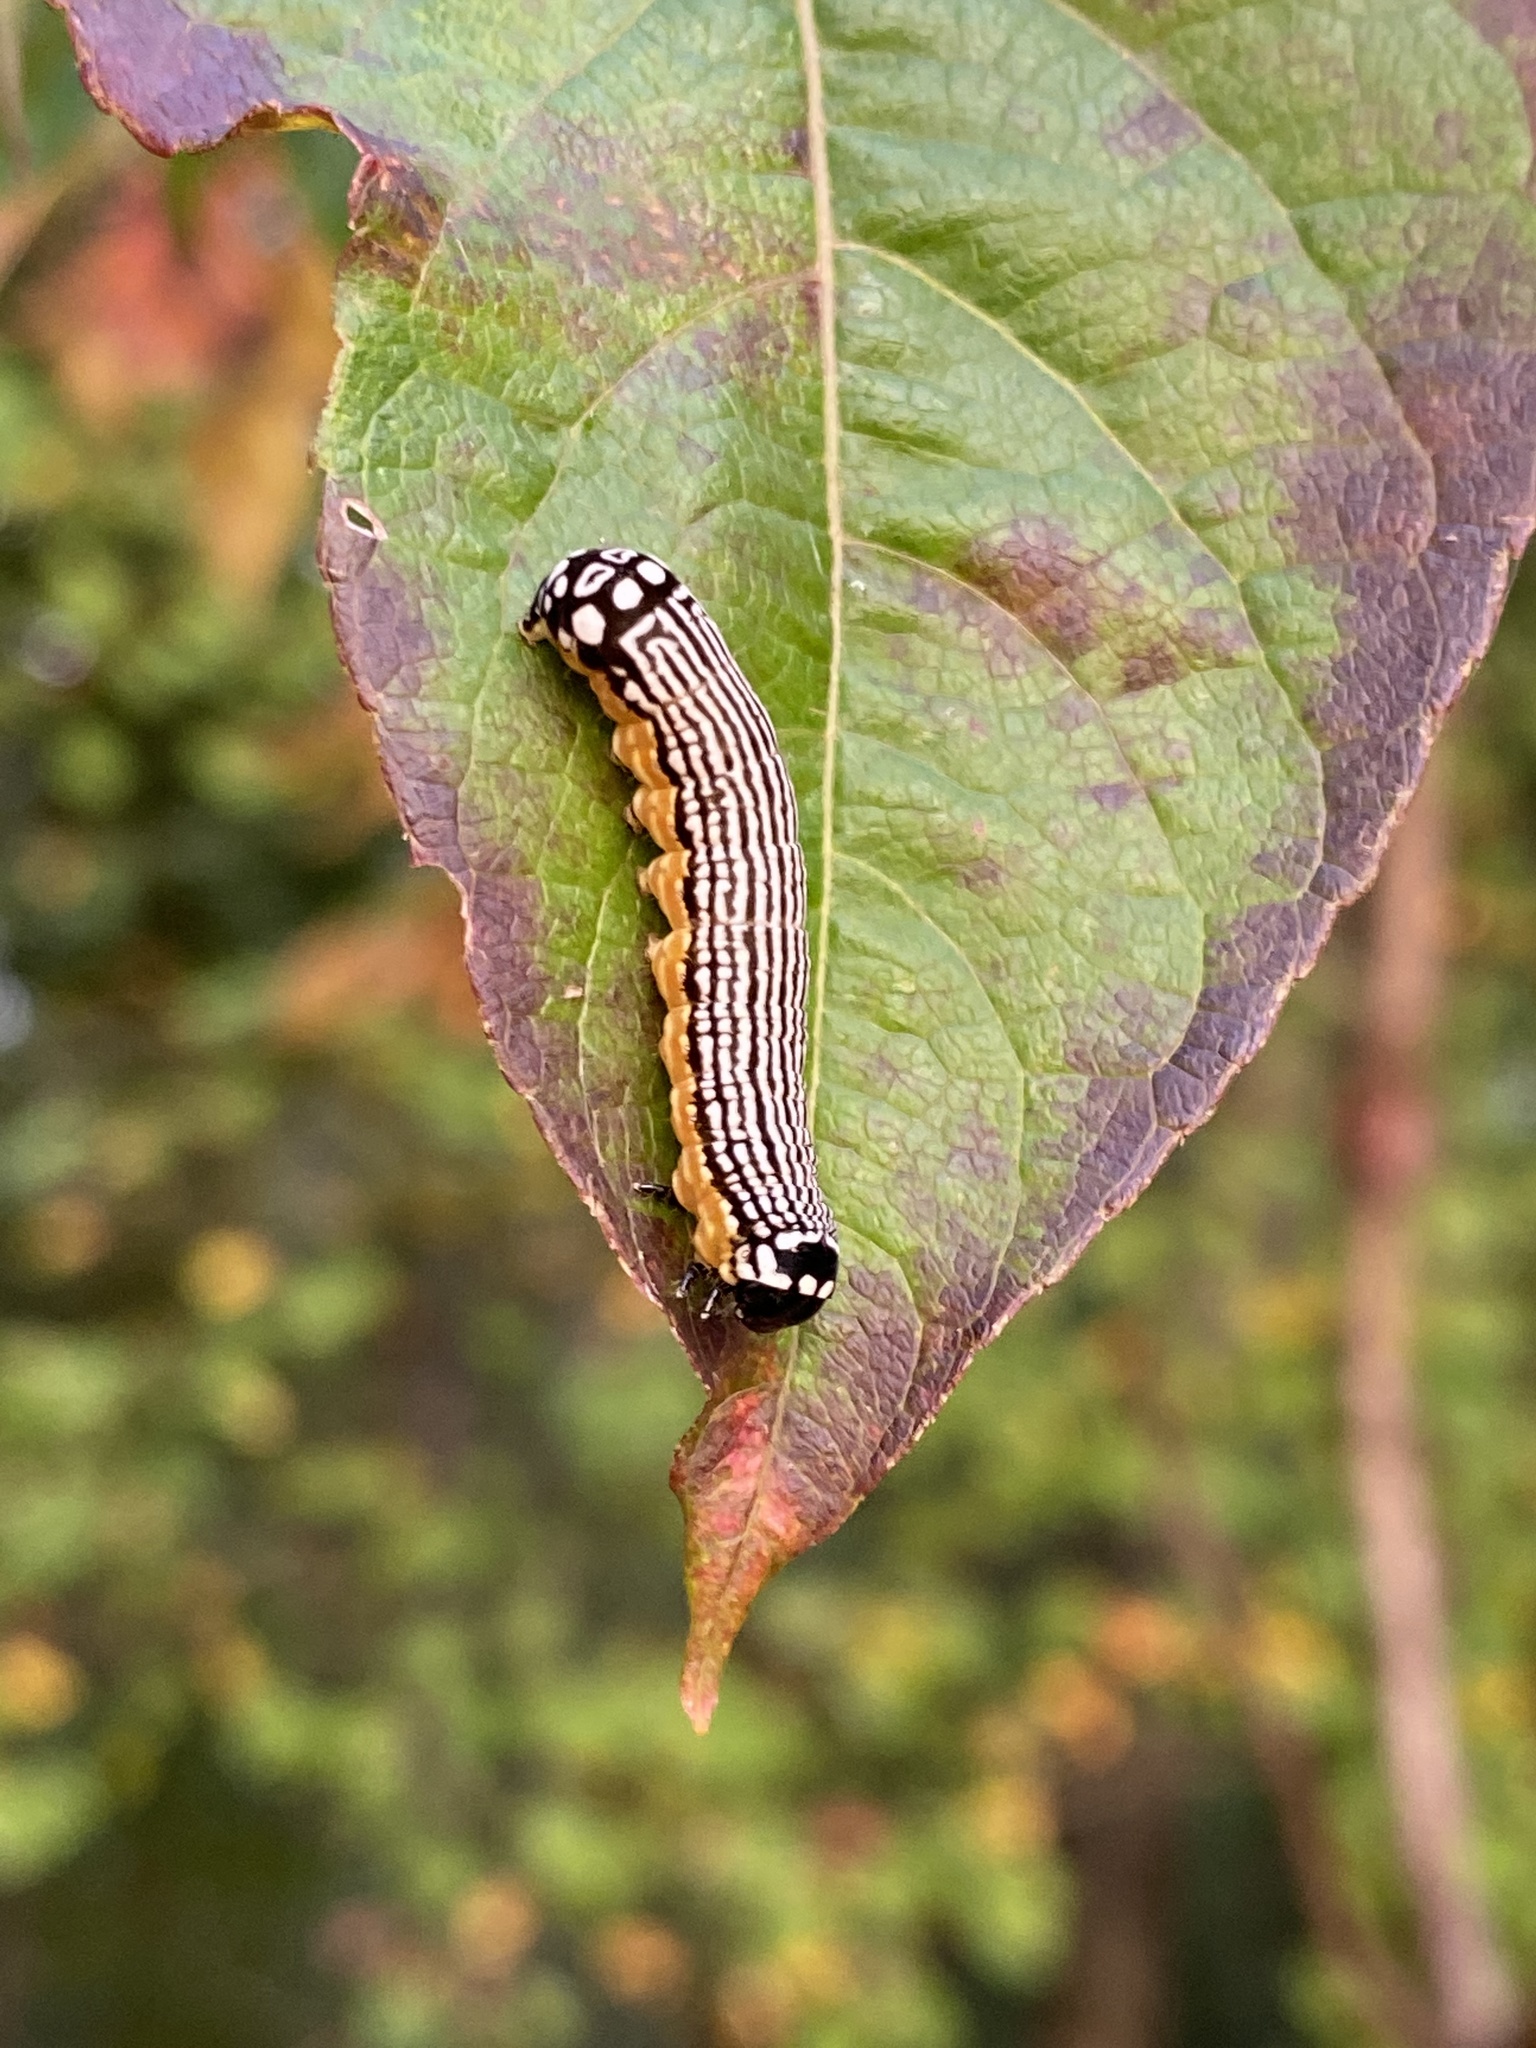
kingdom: Animalia
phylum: Arthropoda
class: Insecta
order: Lepidoptera
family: Noctuidae
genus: Phosphila
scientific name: Phosphila turbulenta
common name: Turbulent phosphila moth
